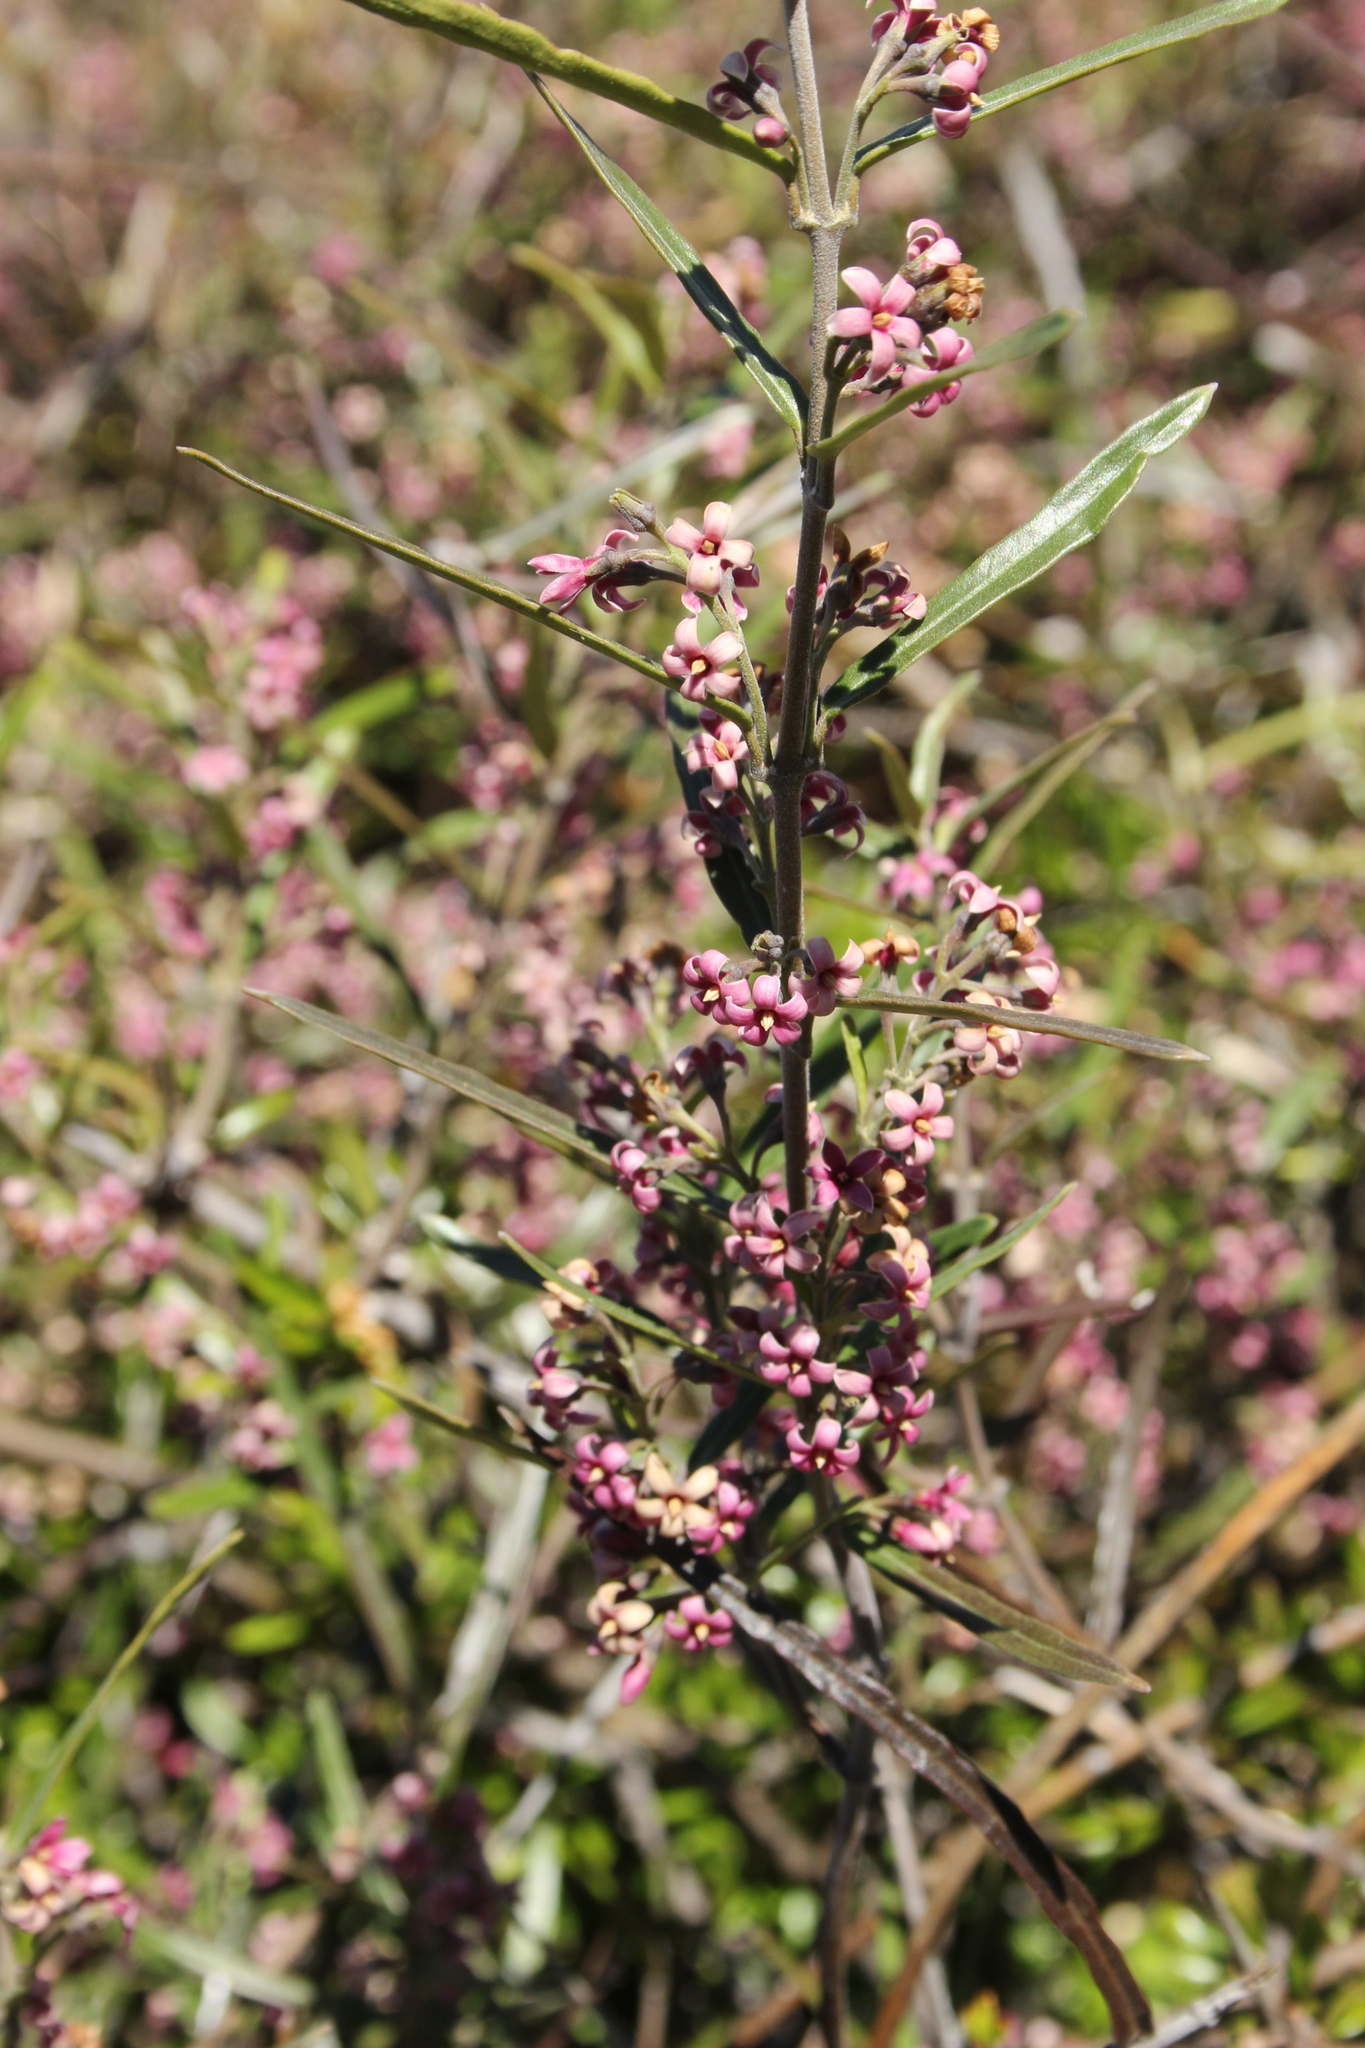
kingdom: Plantae
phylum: Tracheophyta
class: Magnoliopsida
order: Gentianales
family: Apocynaceae
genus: Parsonsia
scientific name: Parsonsia capsularis
